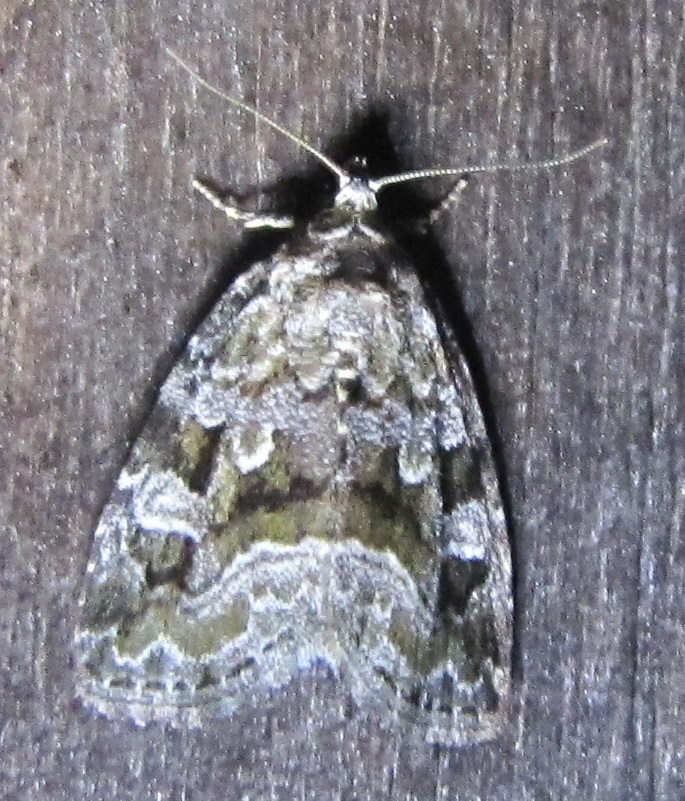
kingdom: Animalia
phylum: Arthropoda
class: Insecta
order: Lepidoptera
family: Noctuidae
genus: Protodeltote
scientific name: Protodeltote muscosula
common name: Large mossy glyph
